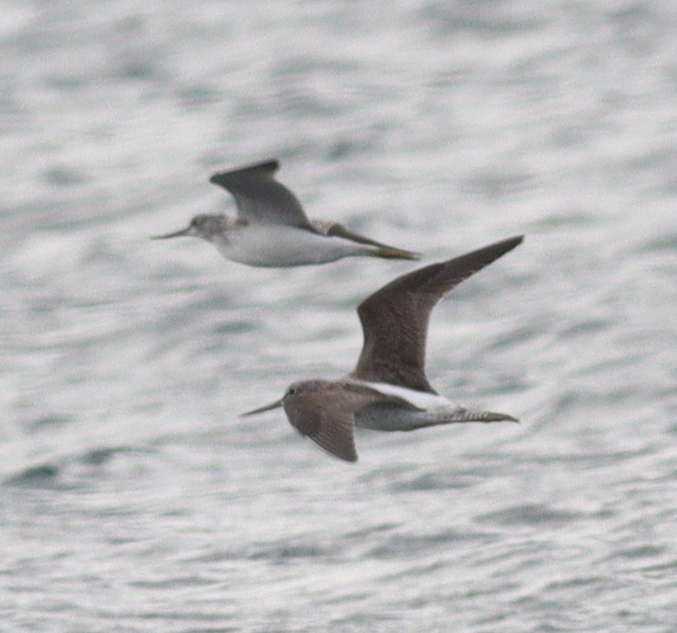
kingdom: Animalia
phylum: Chordata
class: Aves
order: Charadriiformes
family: Scolopacidae
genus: Tringa
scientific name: Tringa nebularia
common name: Common greenshank
